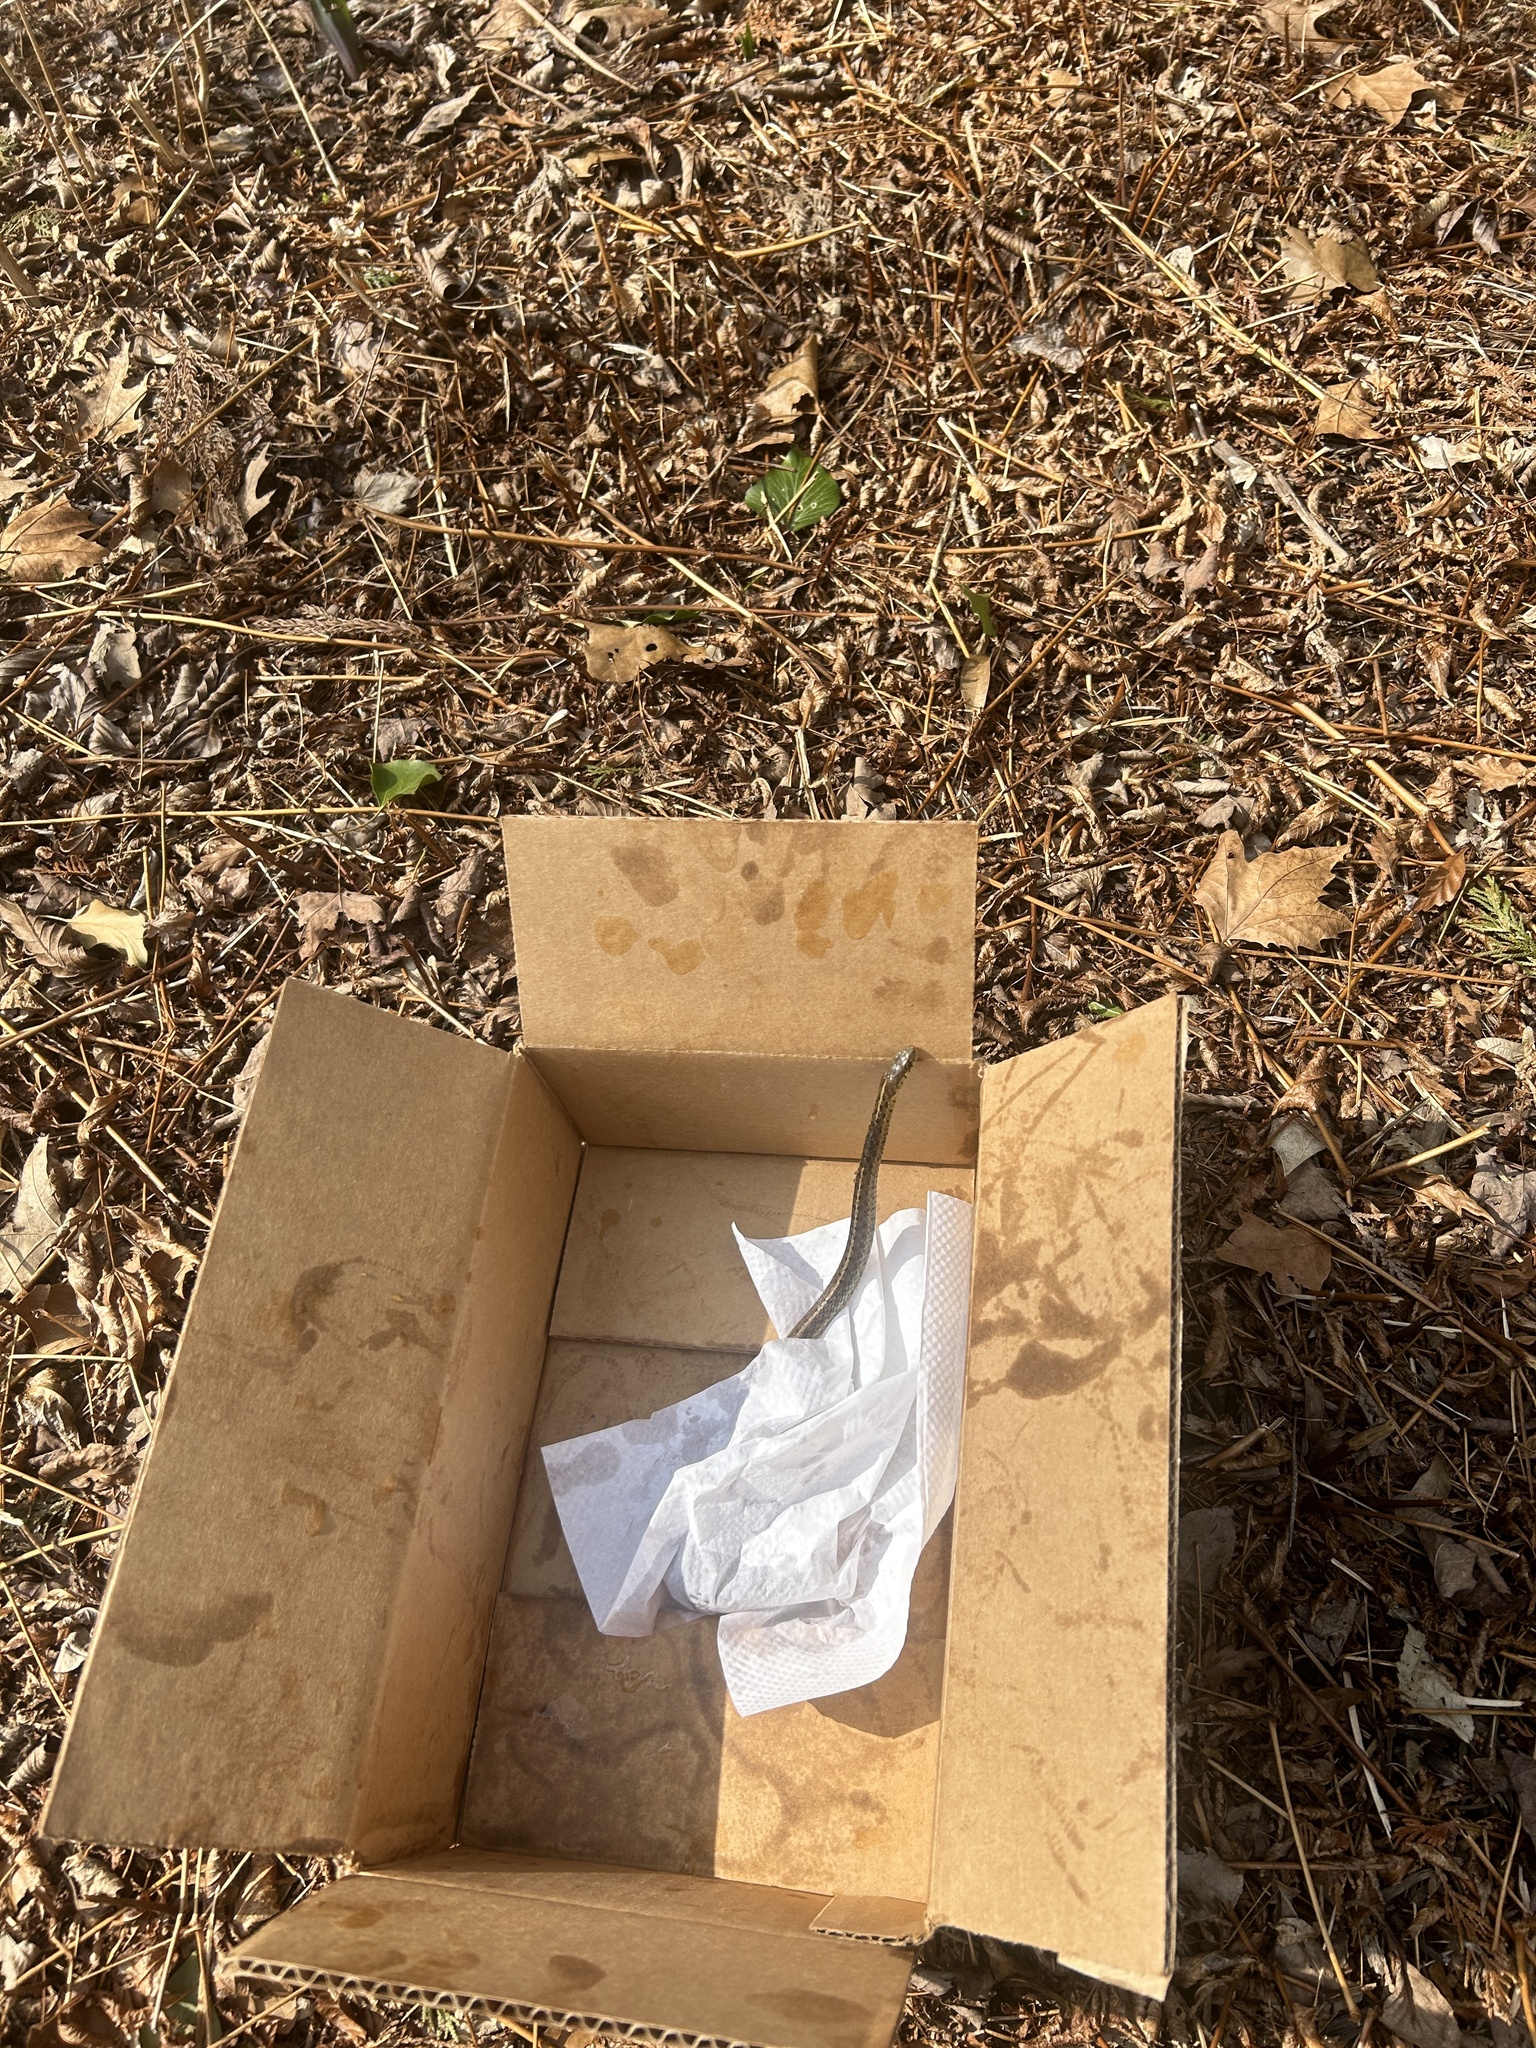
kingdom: Animalia
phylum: Chordata
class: Squamata
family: Colubridae
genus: Thamnophis
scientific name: Thamnophis sirtalis
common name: Common garter snake
